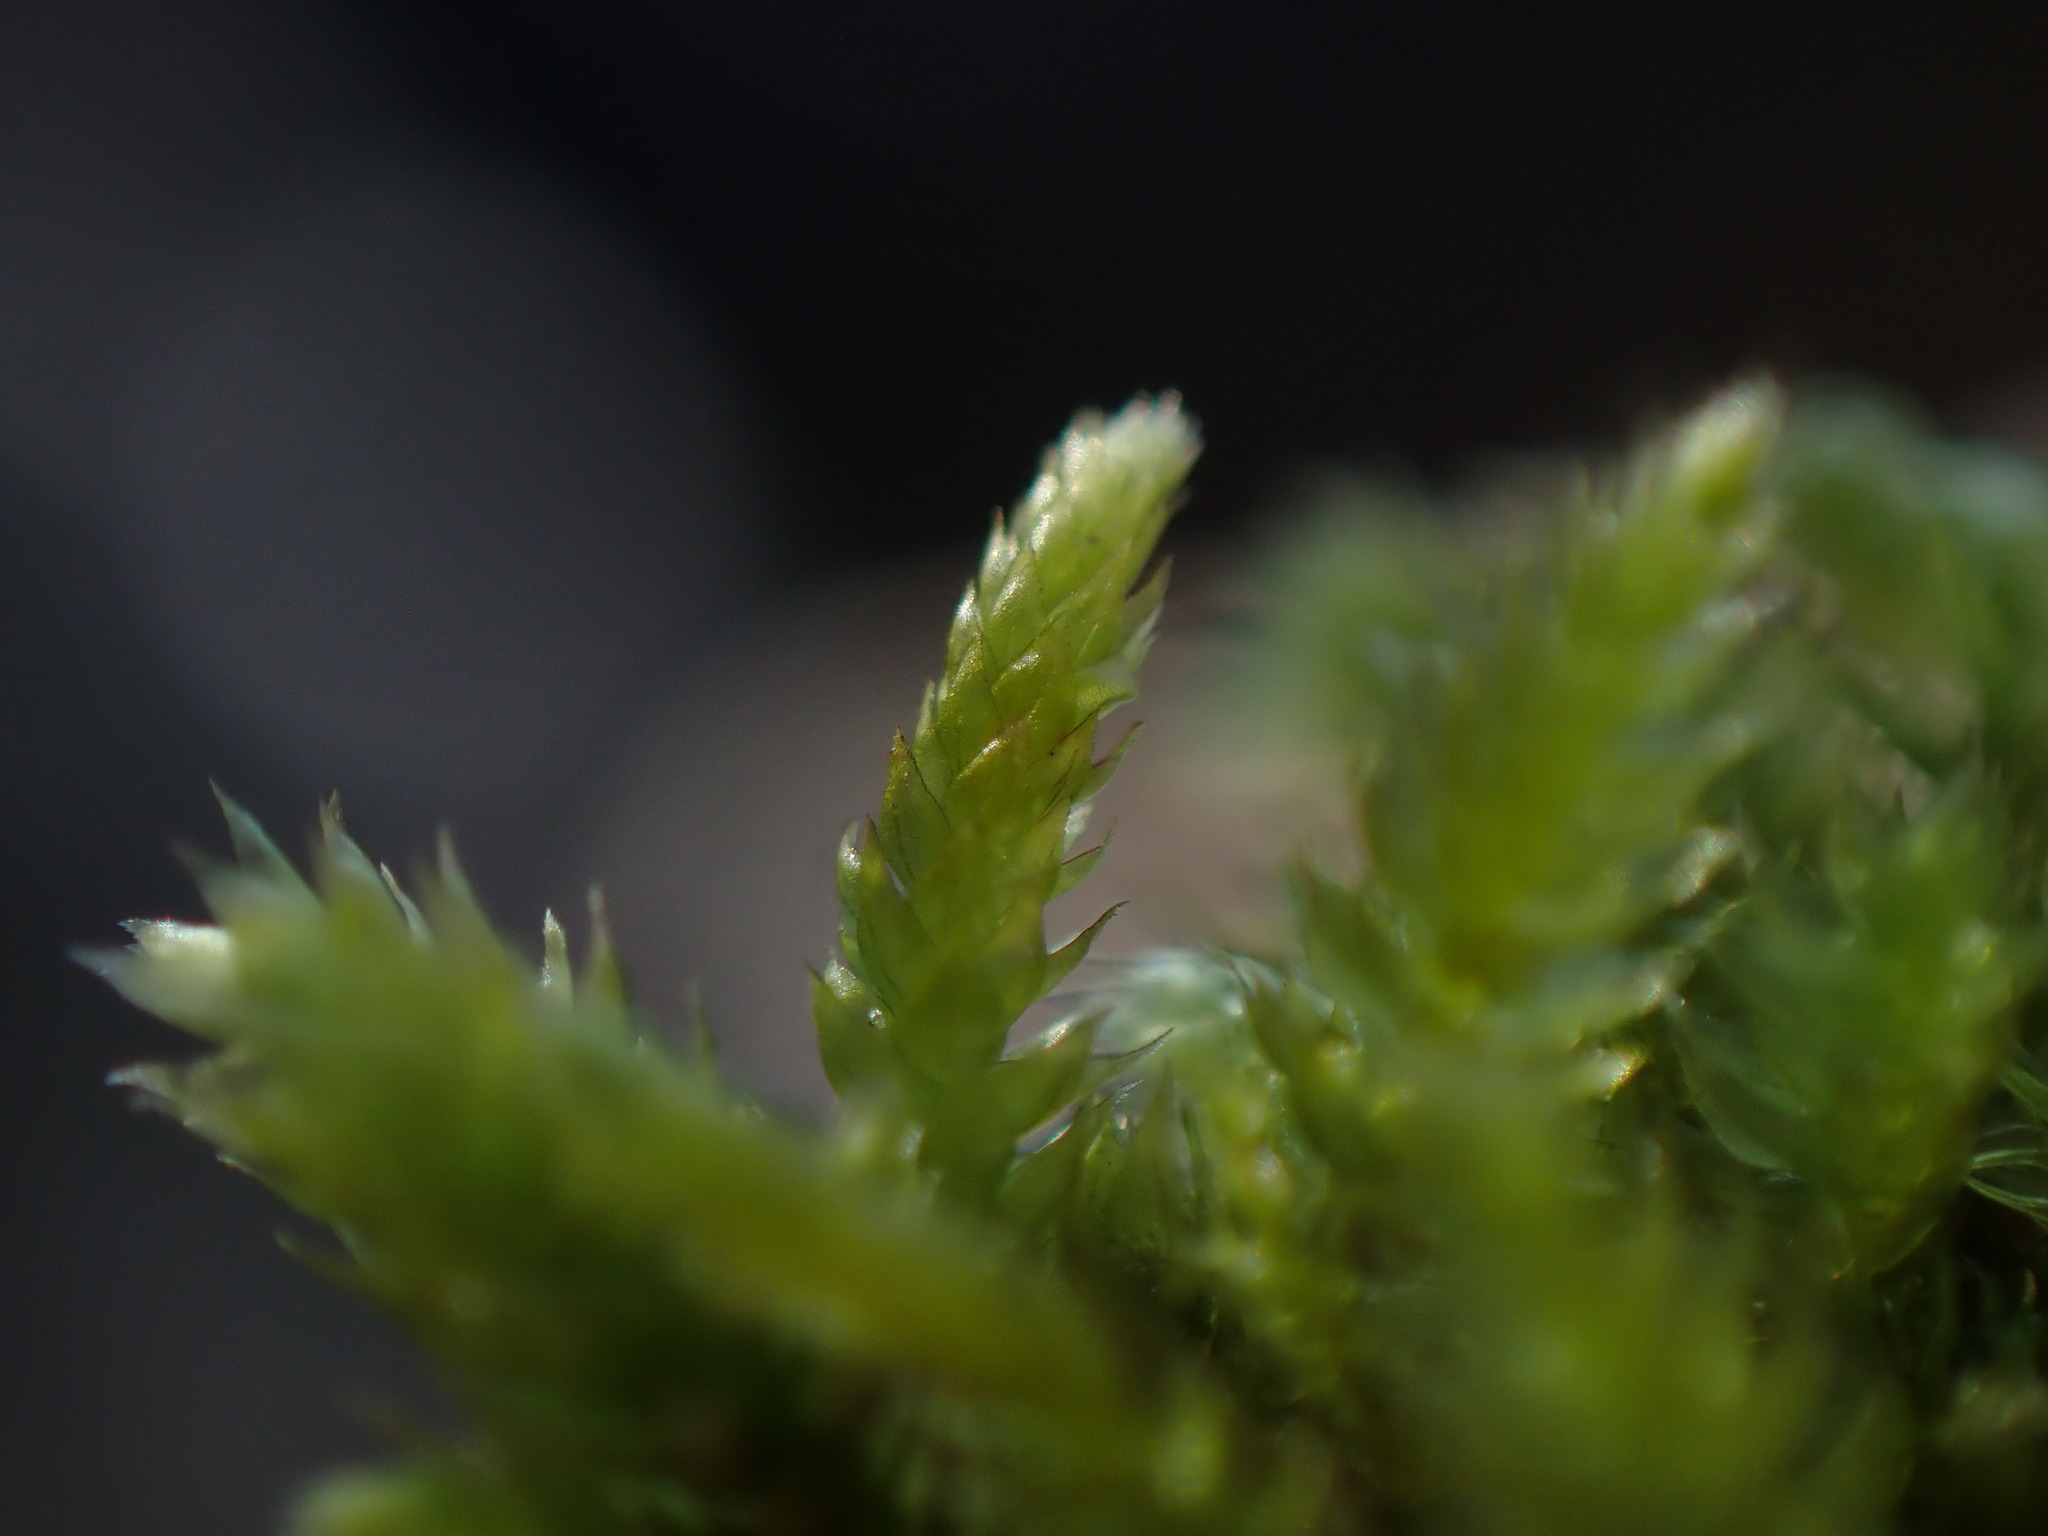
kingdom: Plantae
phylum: Bryophyta
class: Bryopsida
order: Hypnales
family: Brachytheciaceae
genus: Scleropodium
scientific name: Scleropodium touretii
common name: Glass-wort feather-moss
